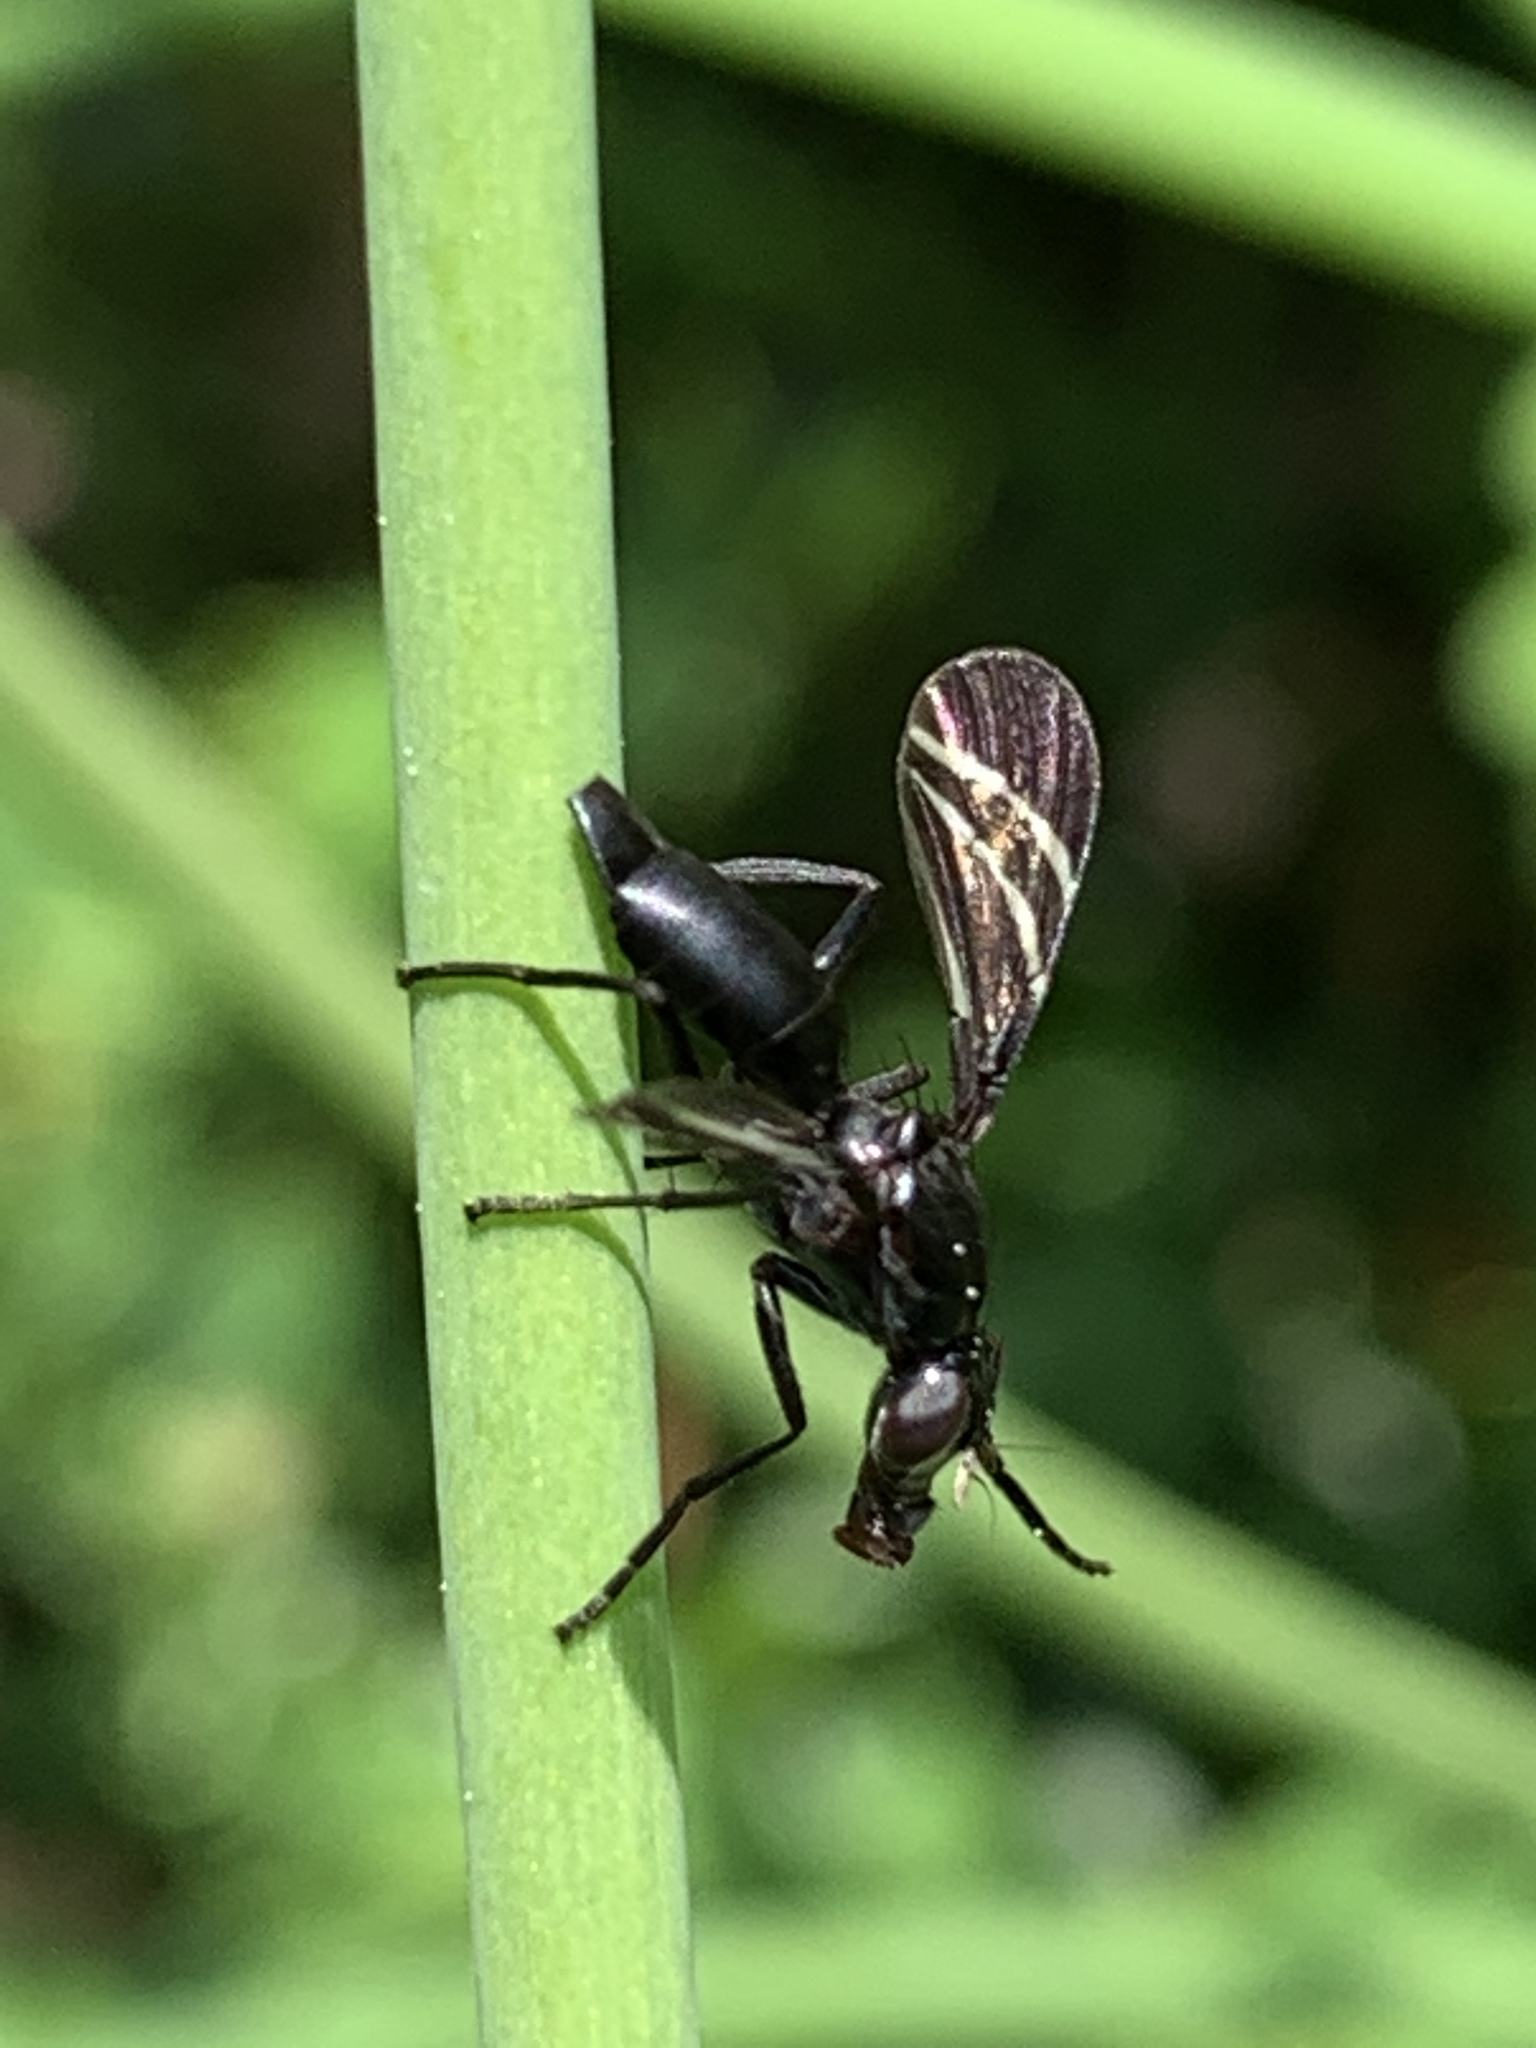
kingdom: Animalia
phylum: Arthropoda
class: Insecta
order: Diptera
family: Ulidiidae
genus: Tritoxa
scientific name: Tritoxa flexa
